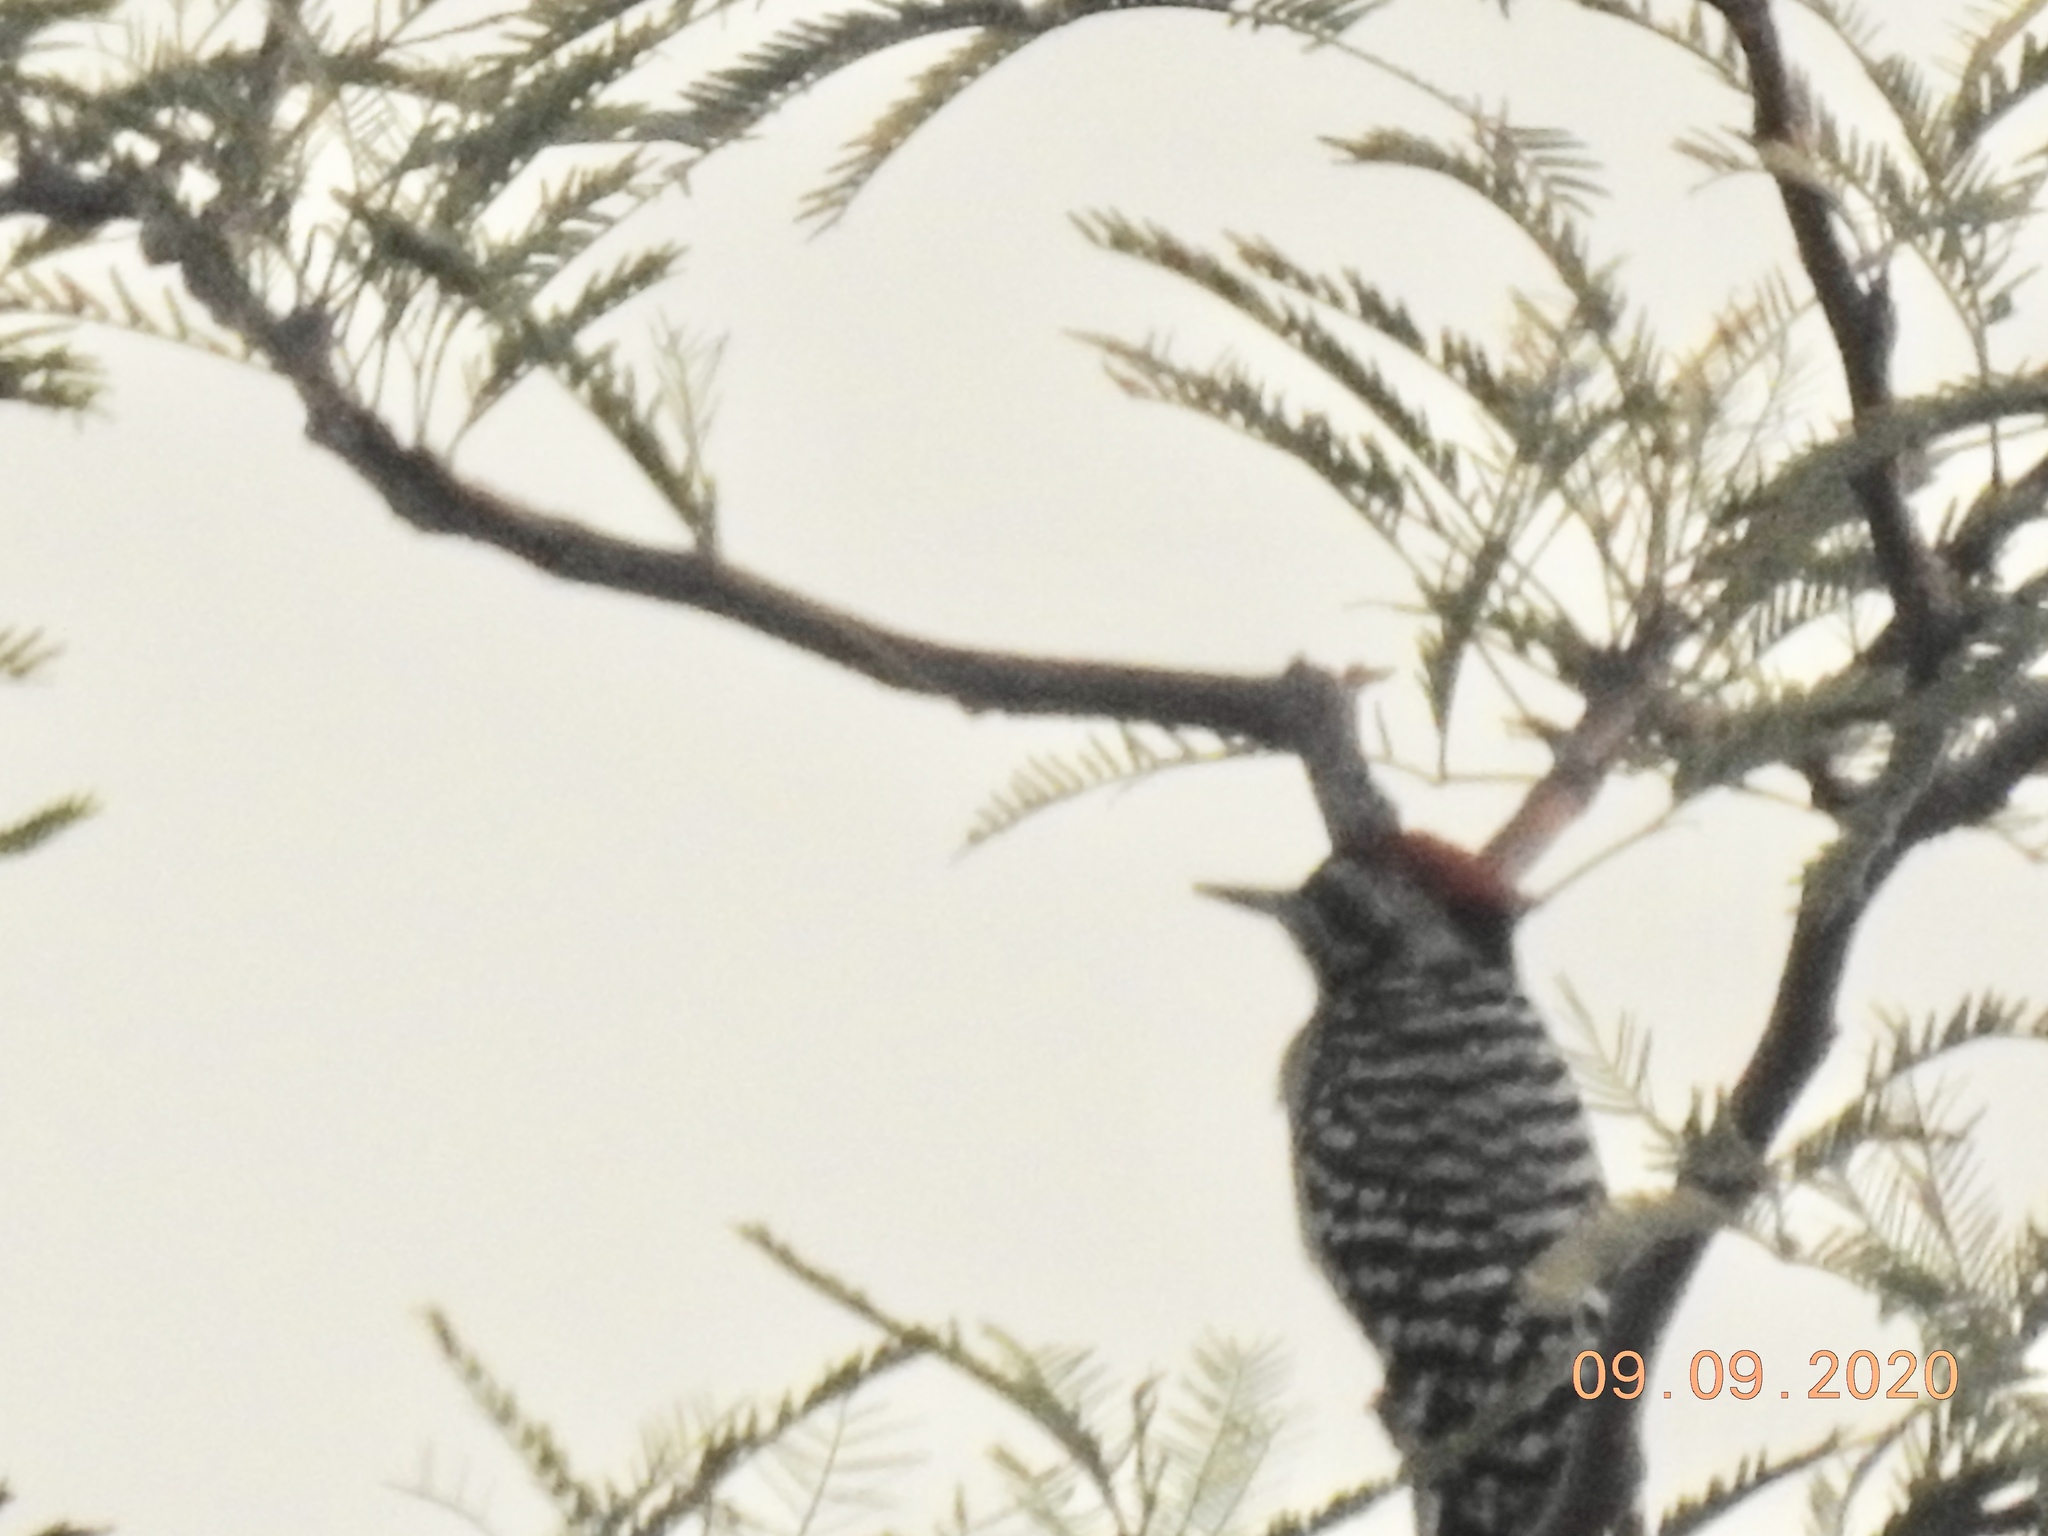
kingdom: Animalia
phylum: Chordata
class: Aves
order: Piciformes
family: Picidae
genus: Dryobates
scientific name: Dryobates scalaris
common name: Ladder-backed woodpecker
